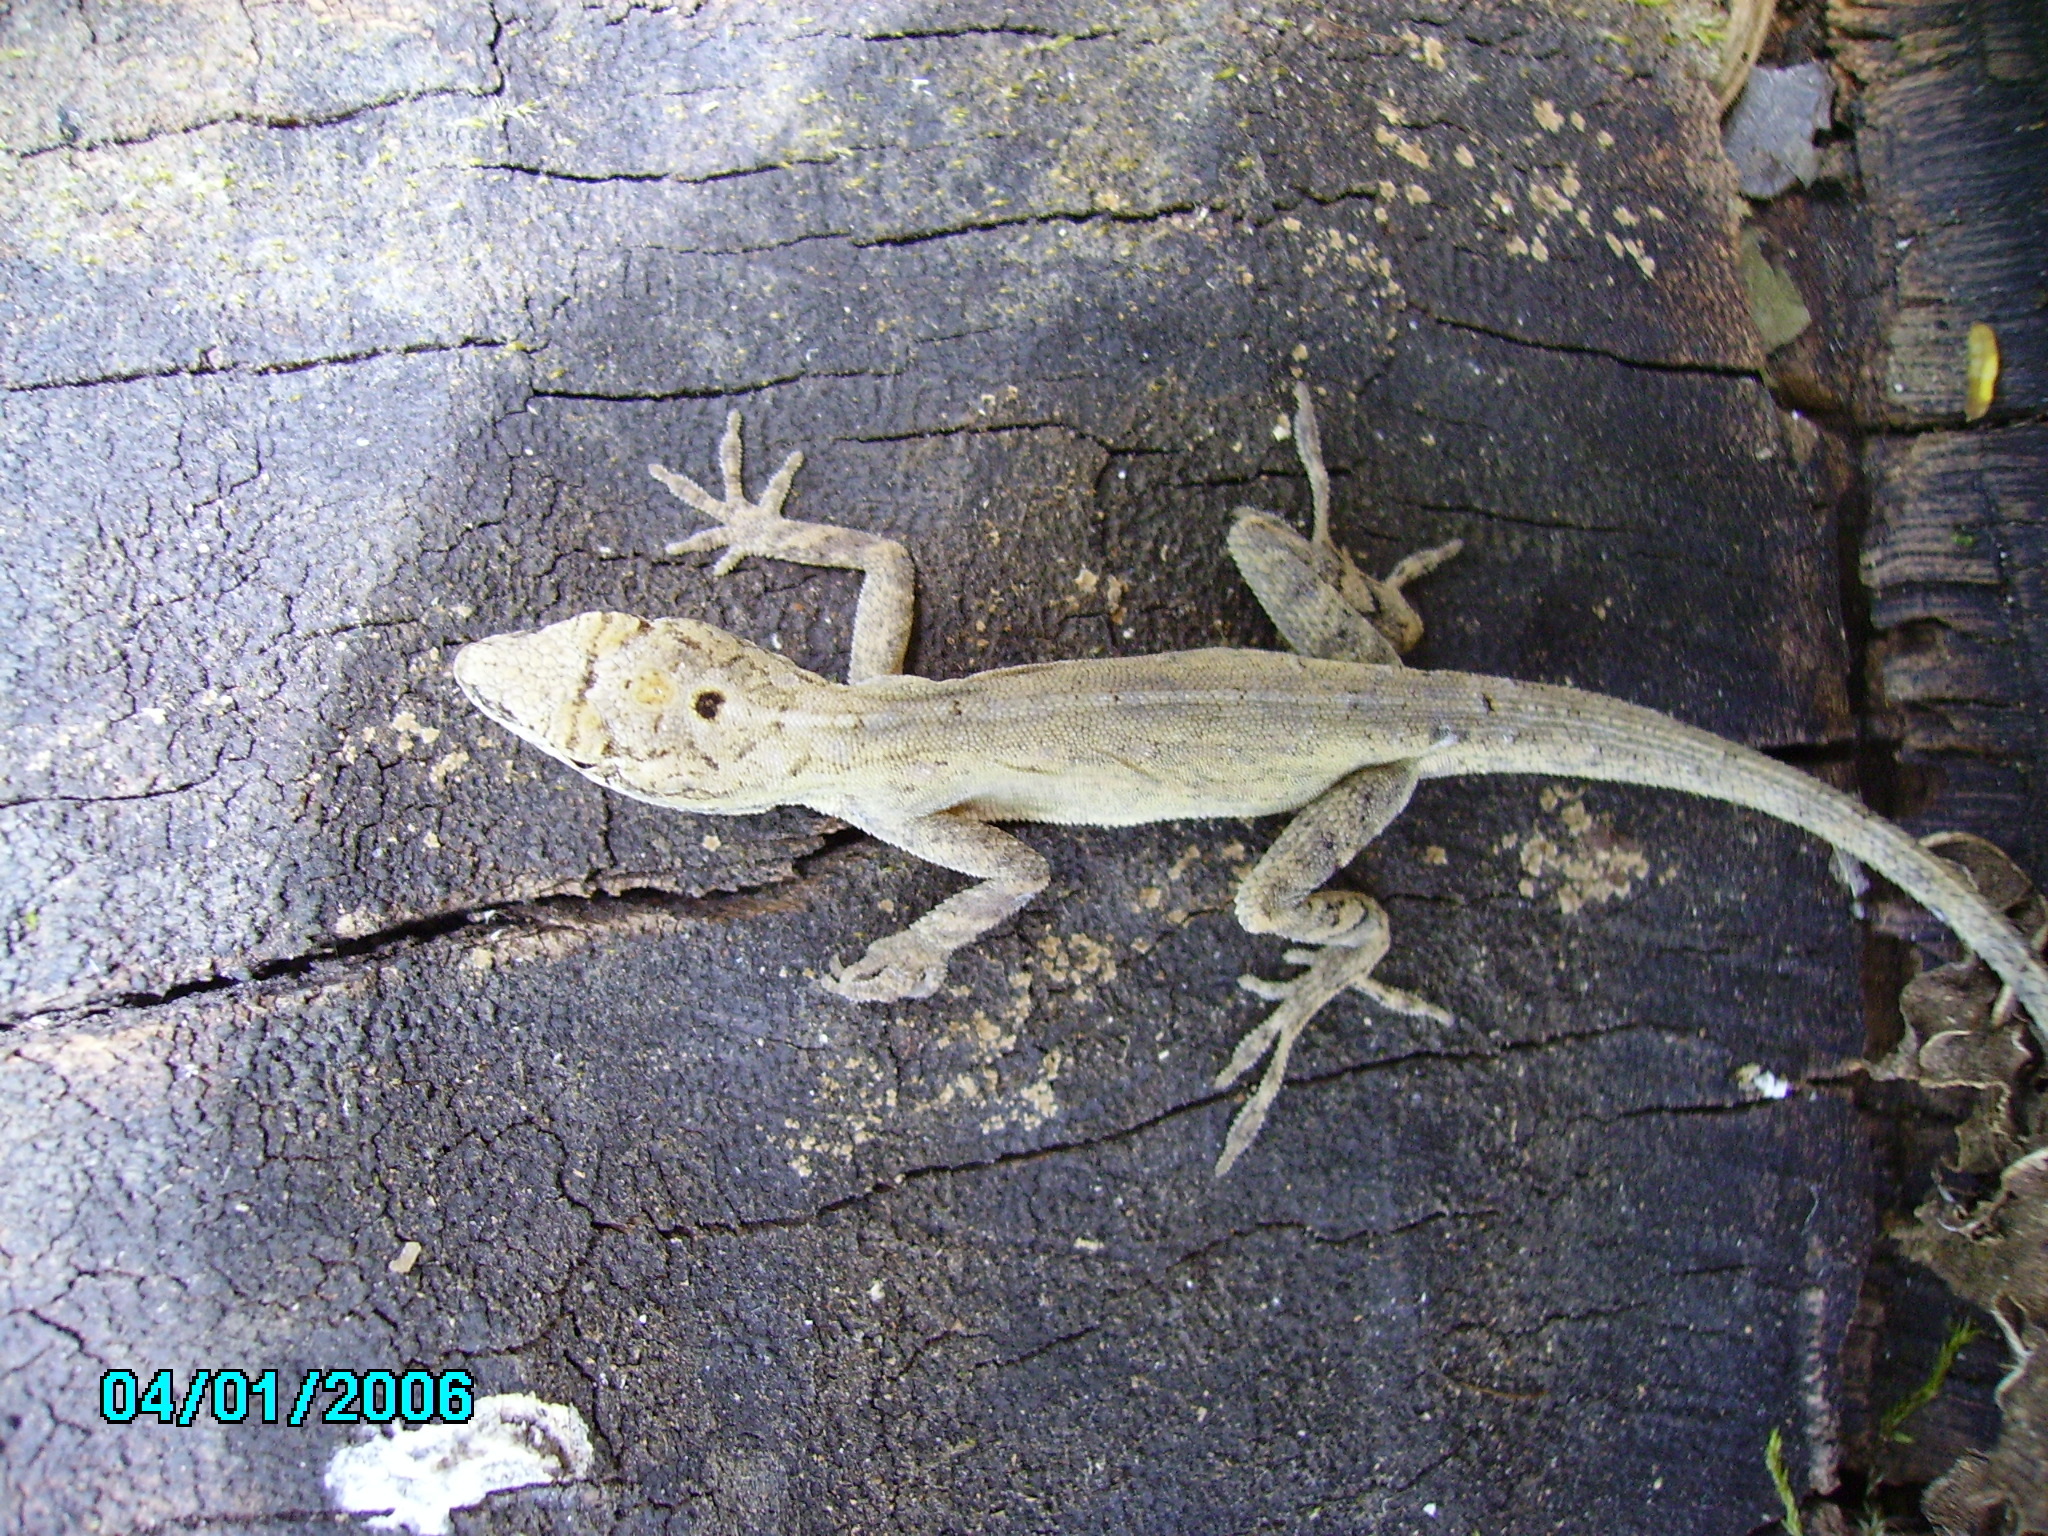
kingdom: Animalia
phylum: Chordata
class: Squamata
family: Dactyloidae
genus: Anolis
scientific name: Anolis wellbornae
